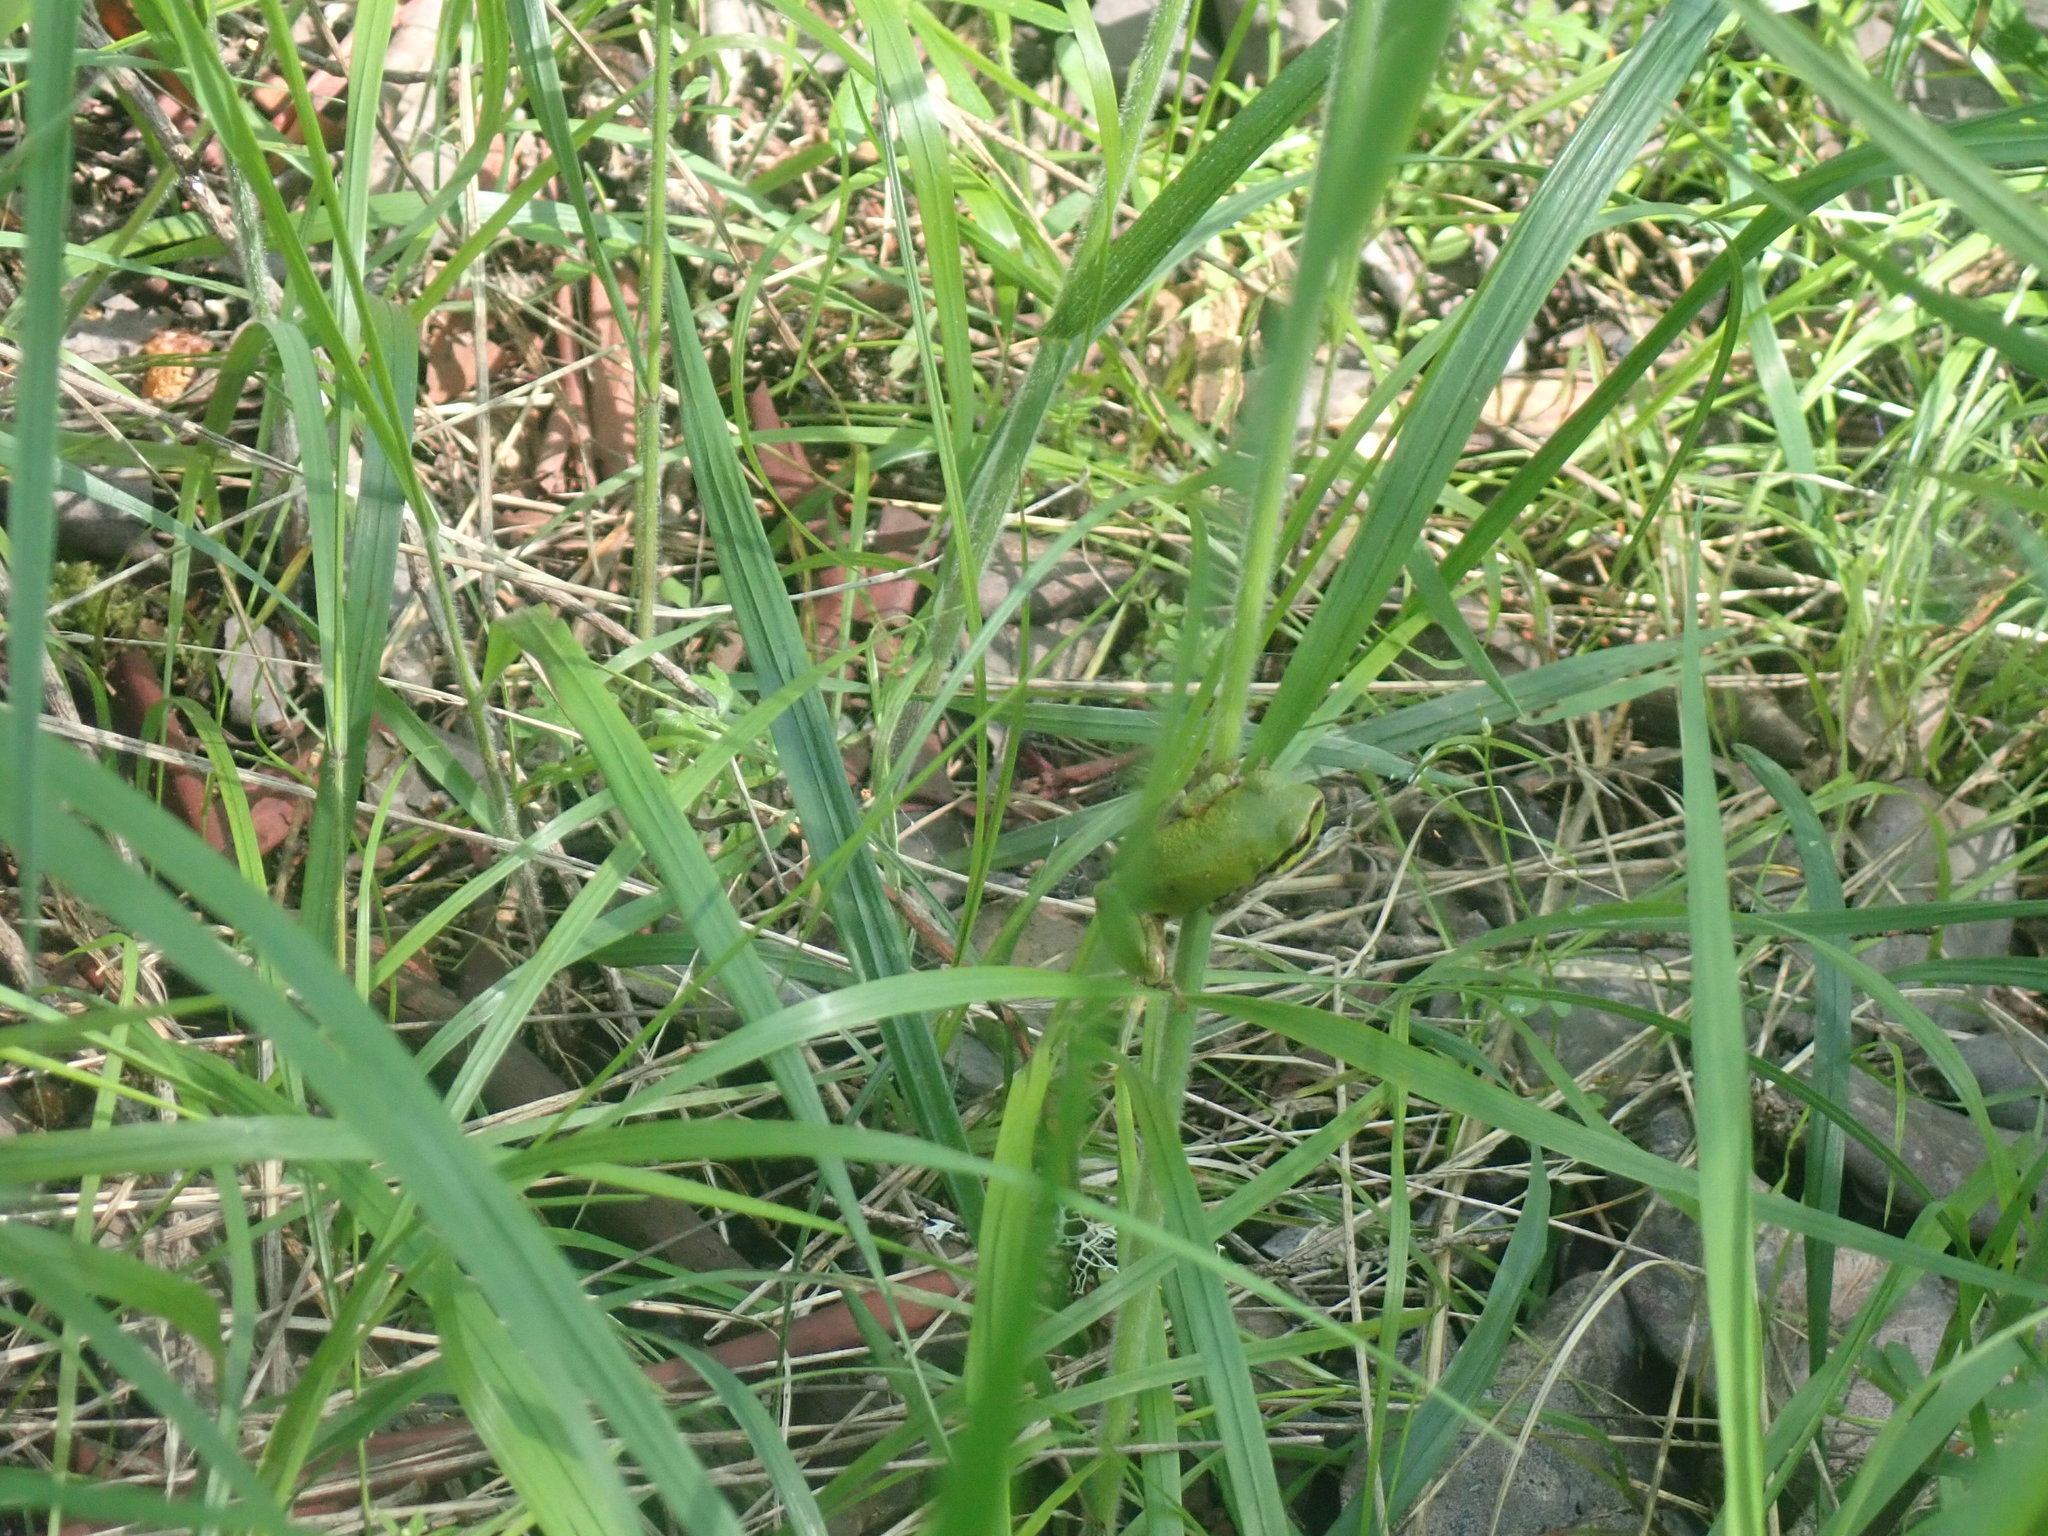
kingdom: Animalia
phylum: Chordata
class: Amphibia
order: Anura
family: Hylidae
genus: Pseudacris
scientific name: Pseudacris regilla
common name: Pacific chorus frog
